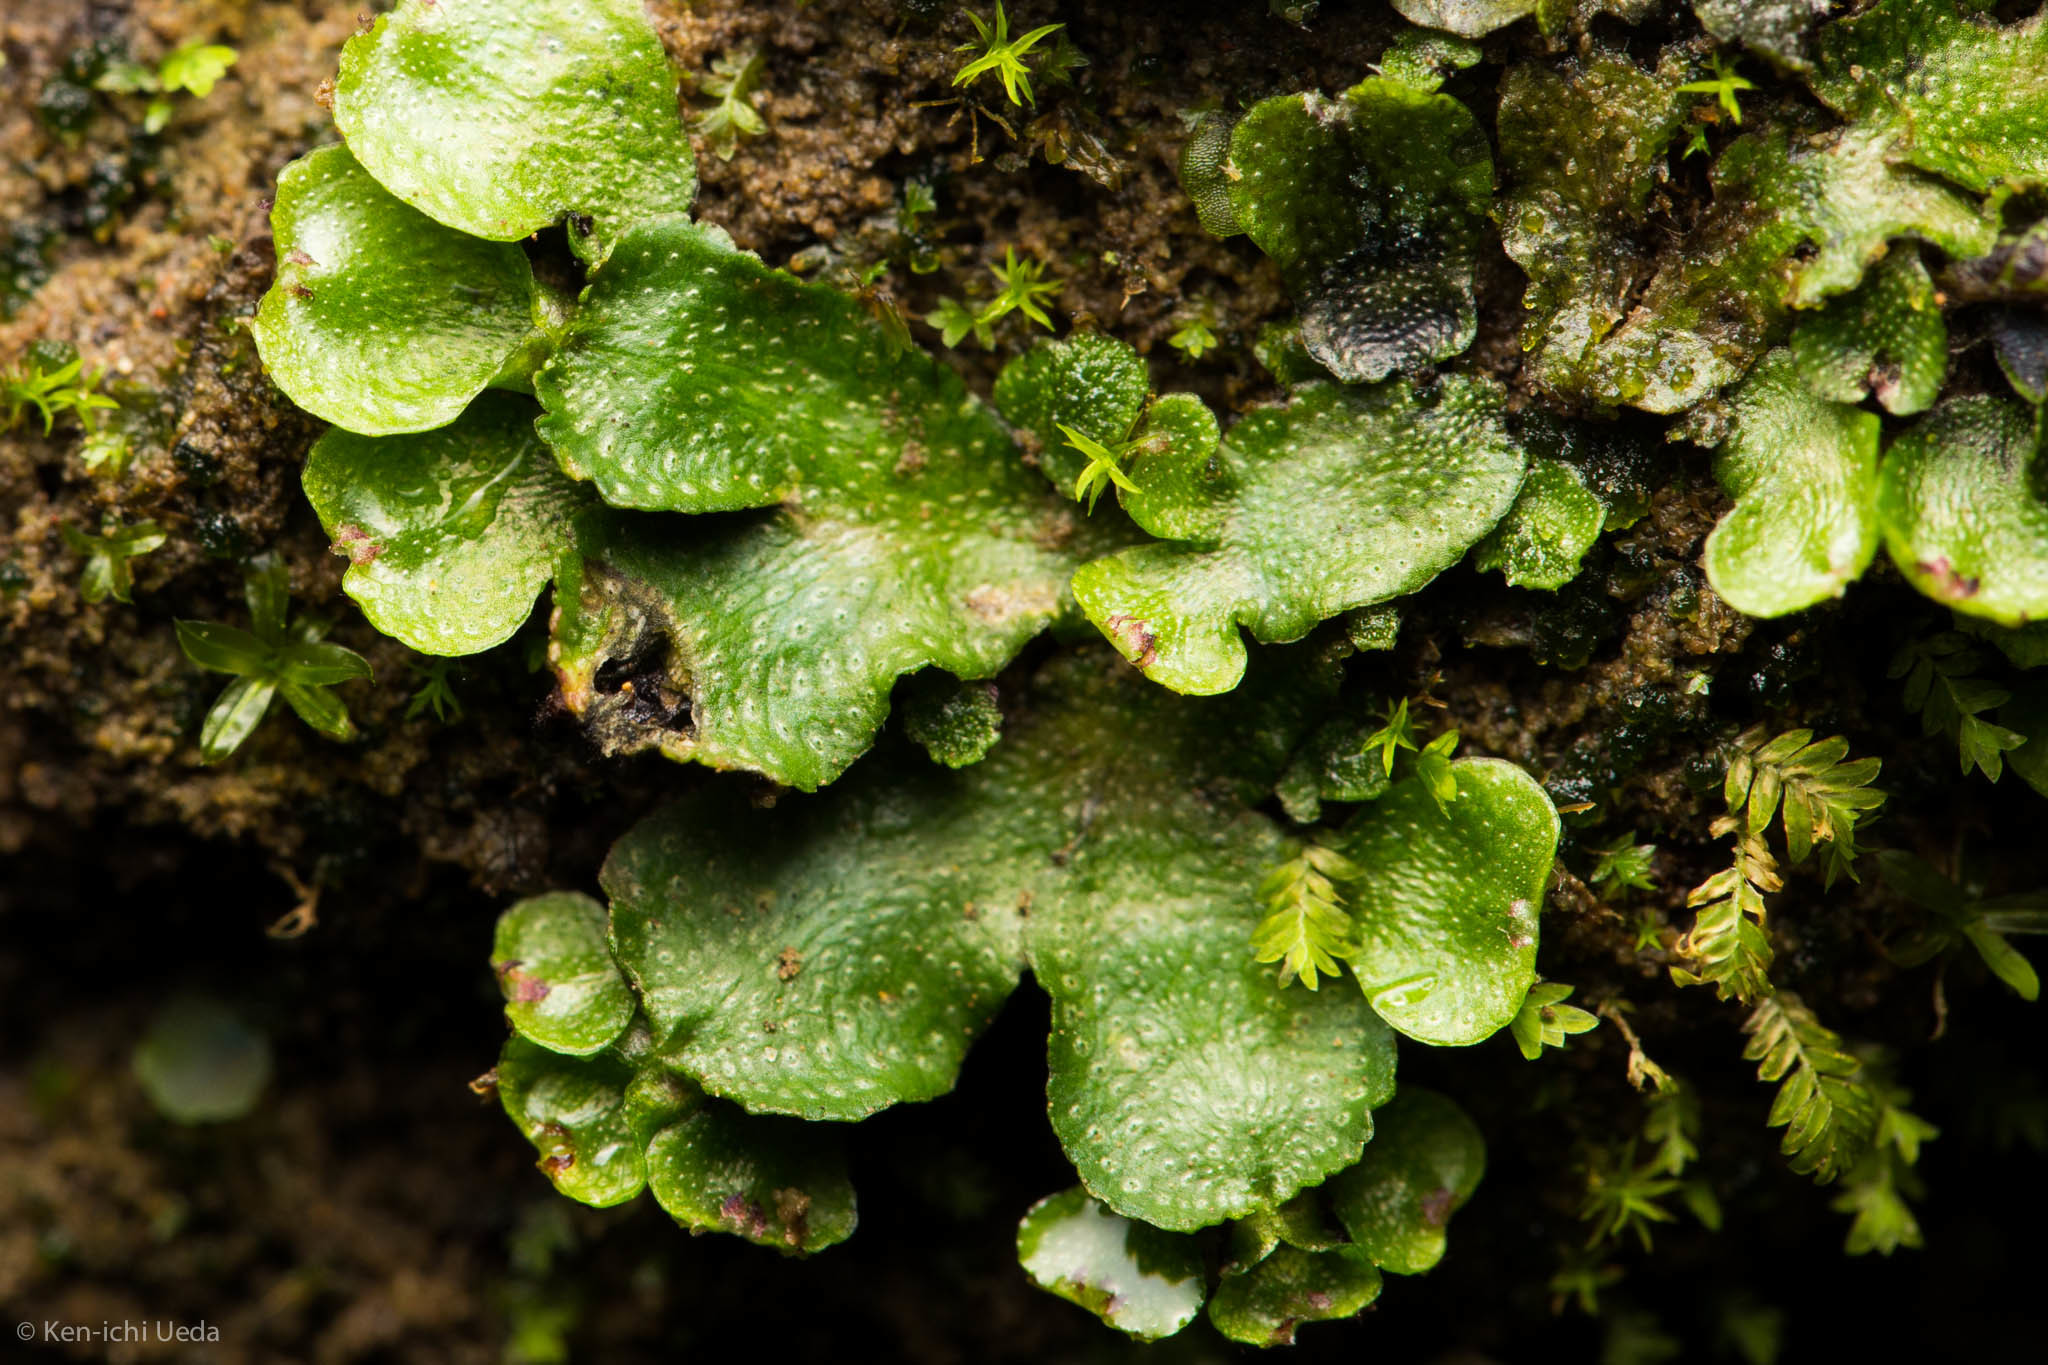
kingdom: Plantae
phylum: Marchantiophyta
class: Marchantiopsida
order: Marchantiales
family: Targioniaceae
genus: Targionia
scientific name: Targionia hypophylla
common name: Orobus-seed liverwort
